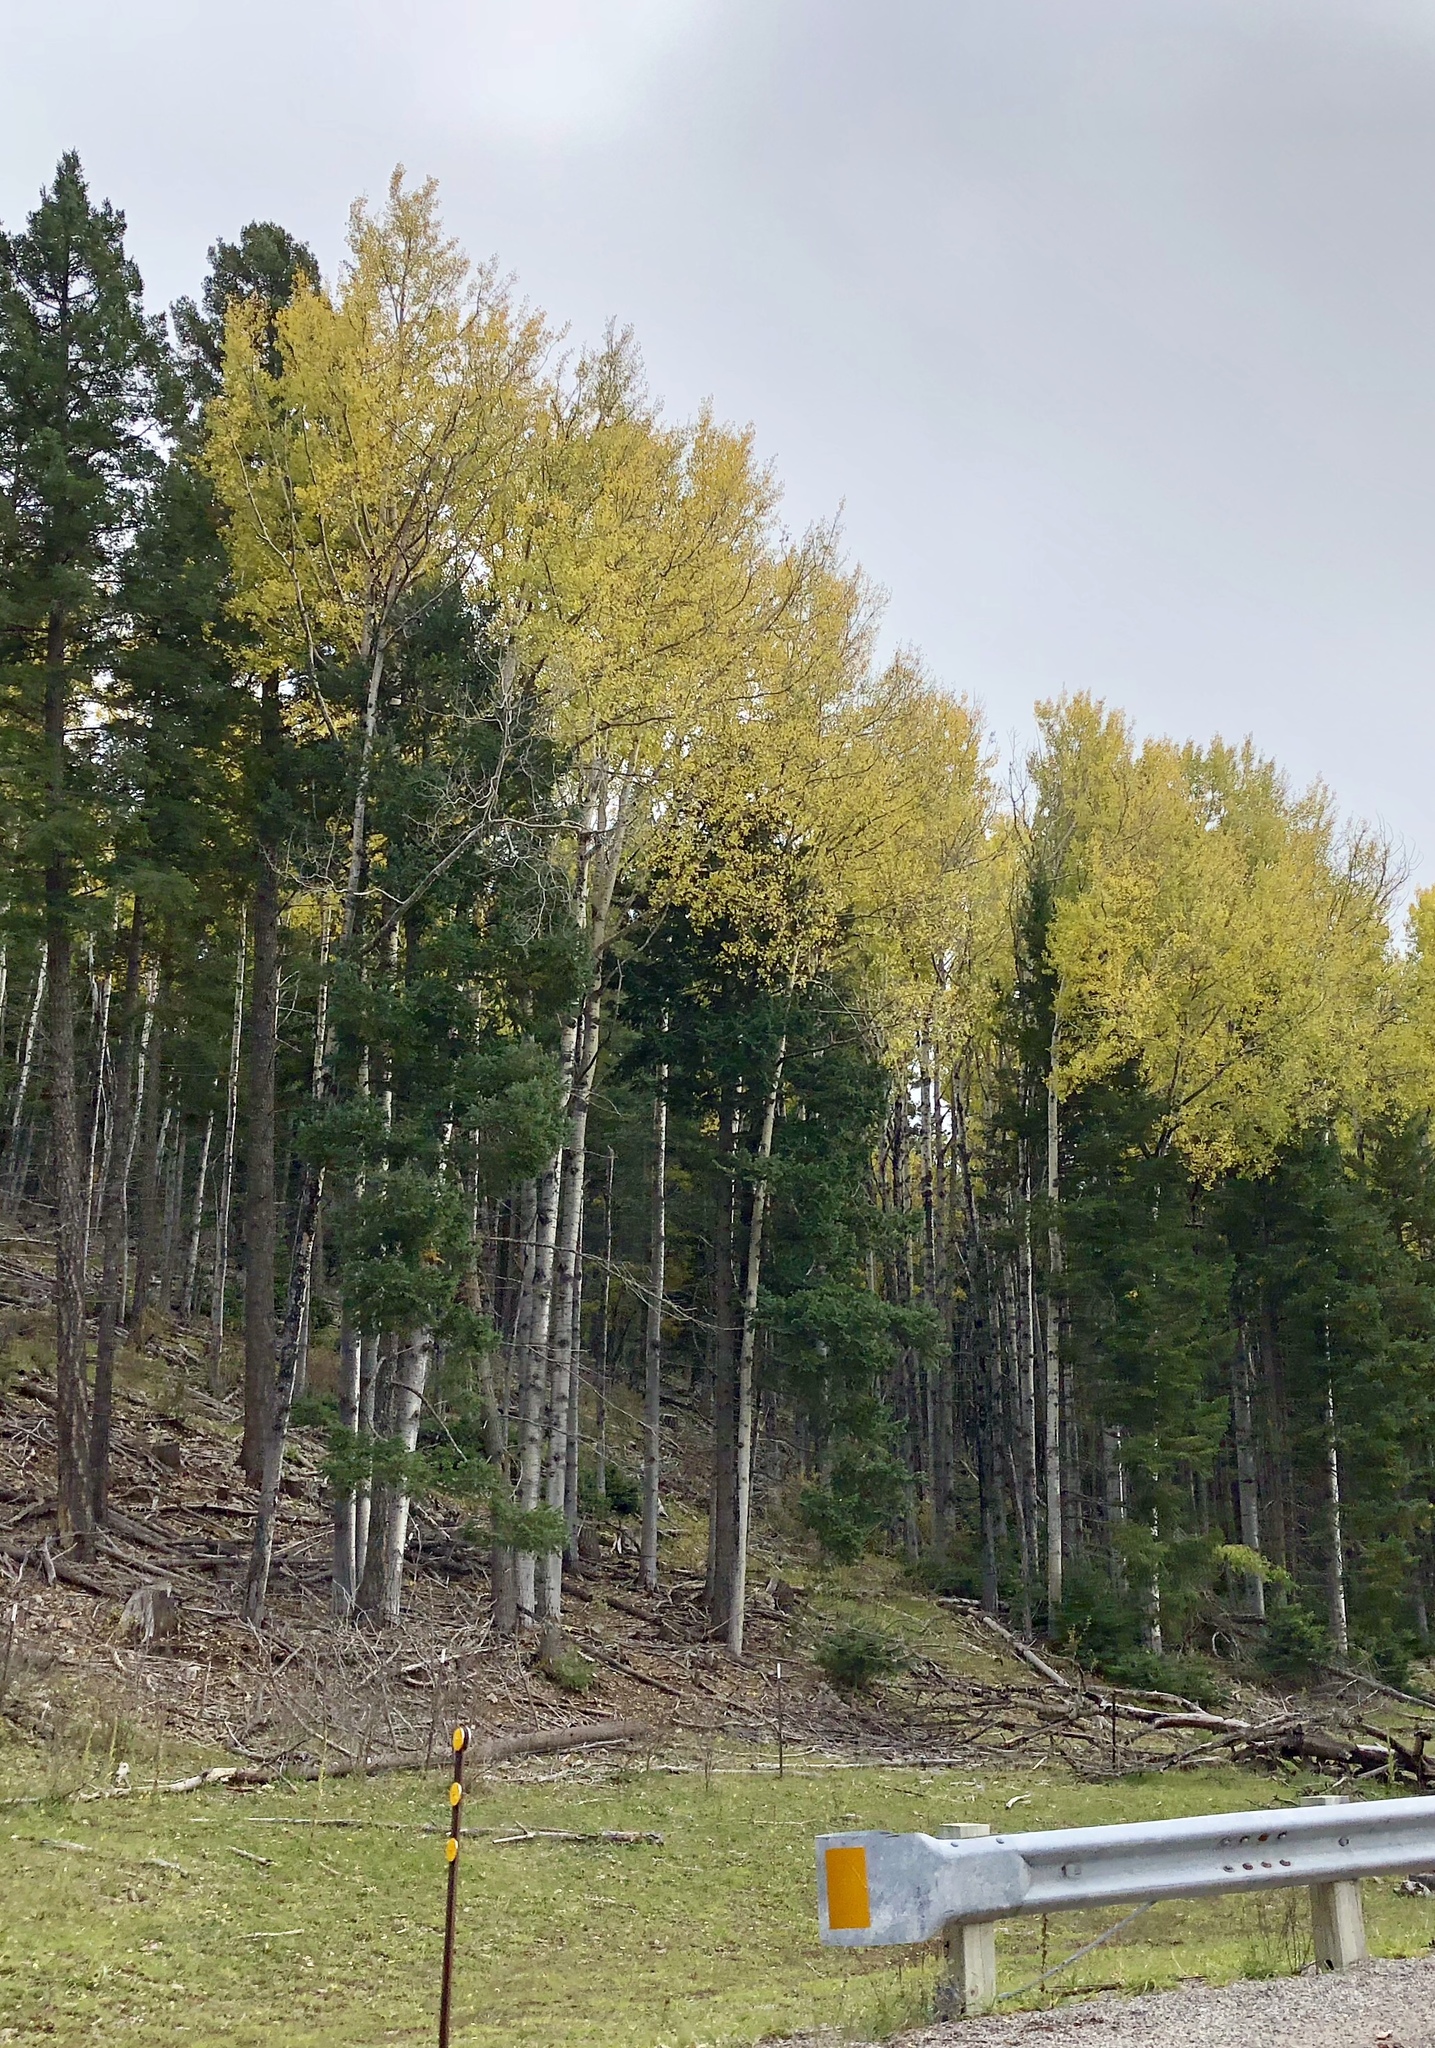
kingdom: Plantae
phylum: Tracheophyta
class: Magnoliopsida
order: Malpighiales
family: Salicaceae
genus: Populus
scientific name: Populus tremuloides
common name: Quaking aspen
